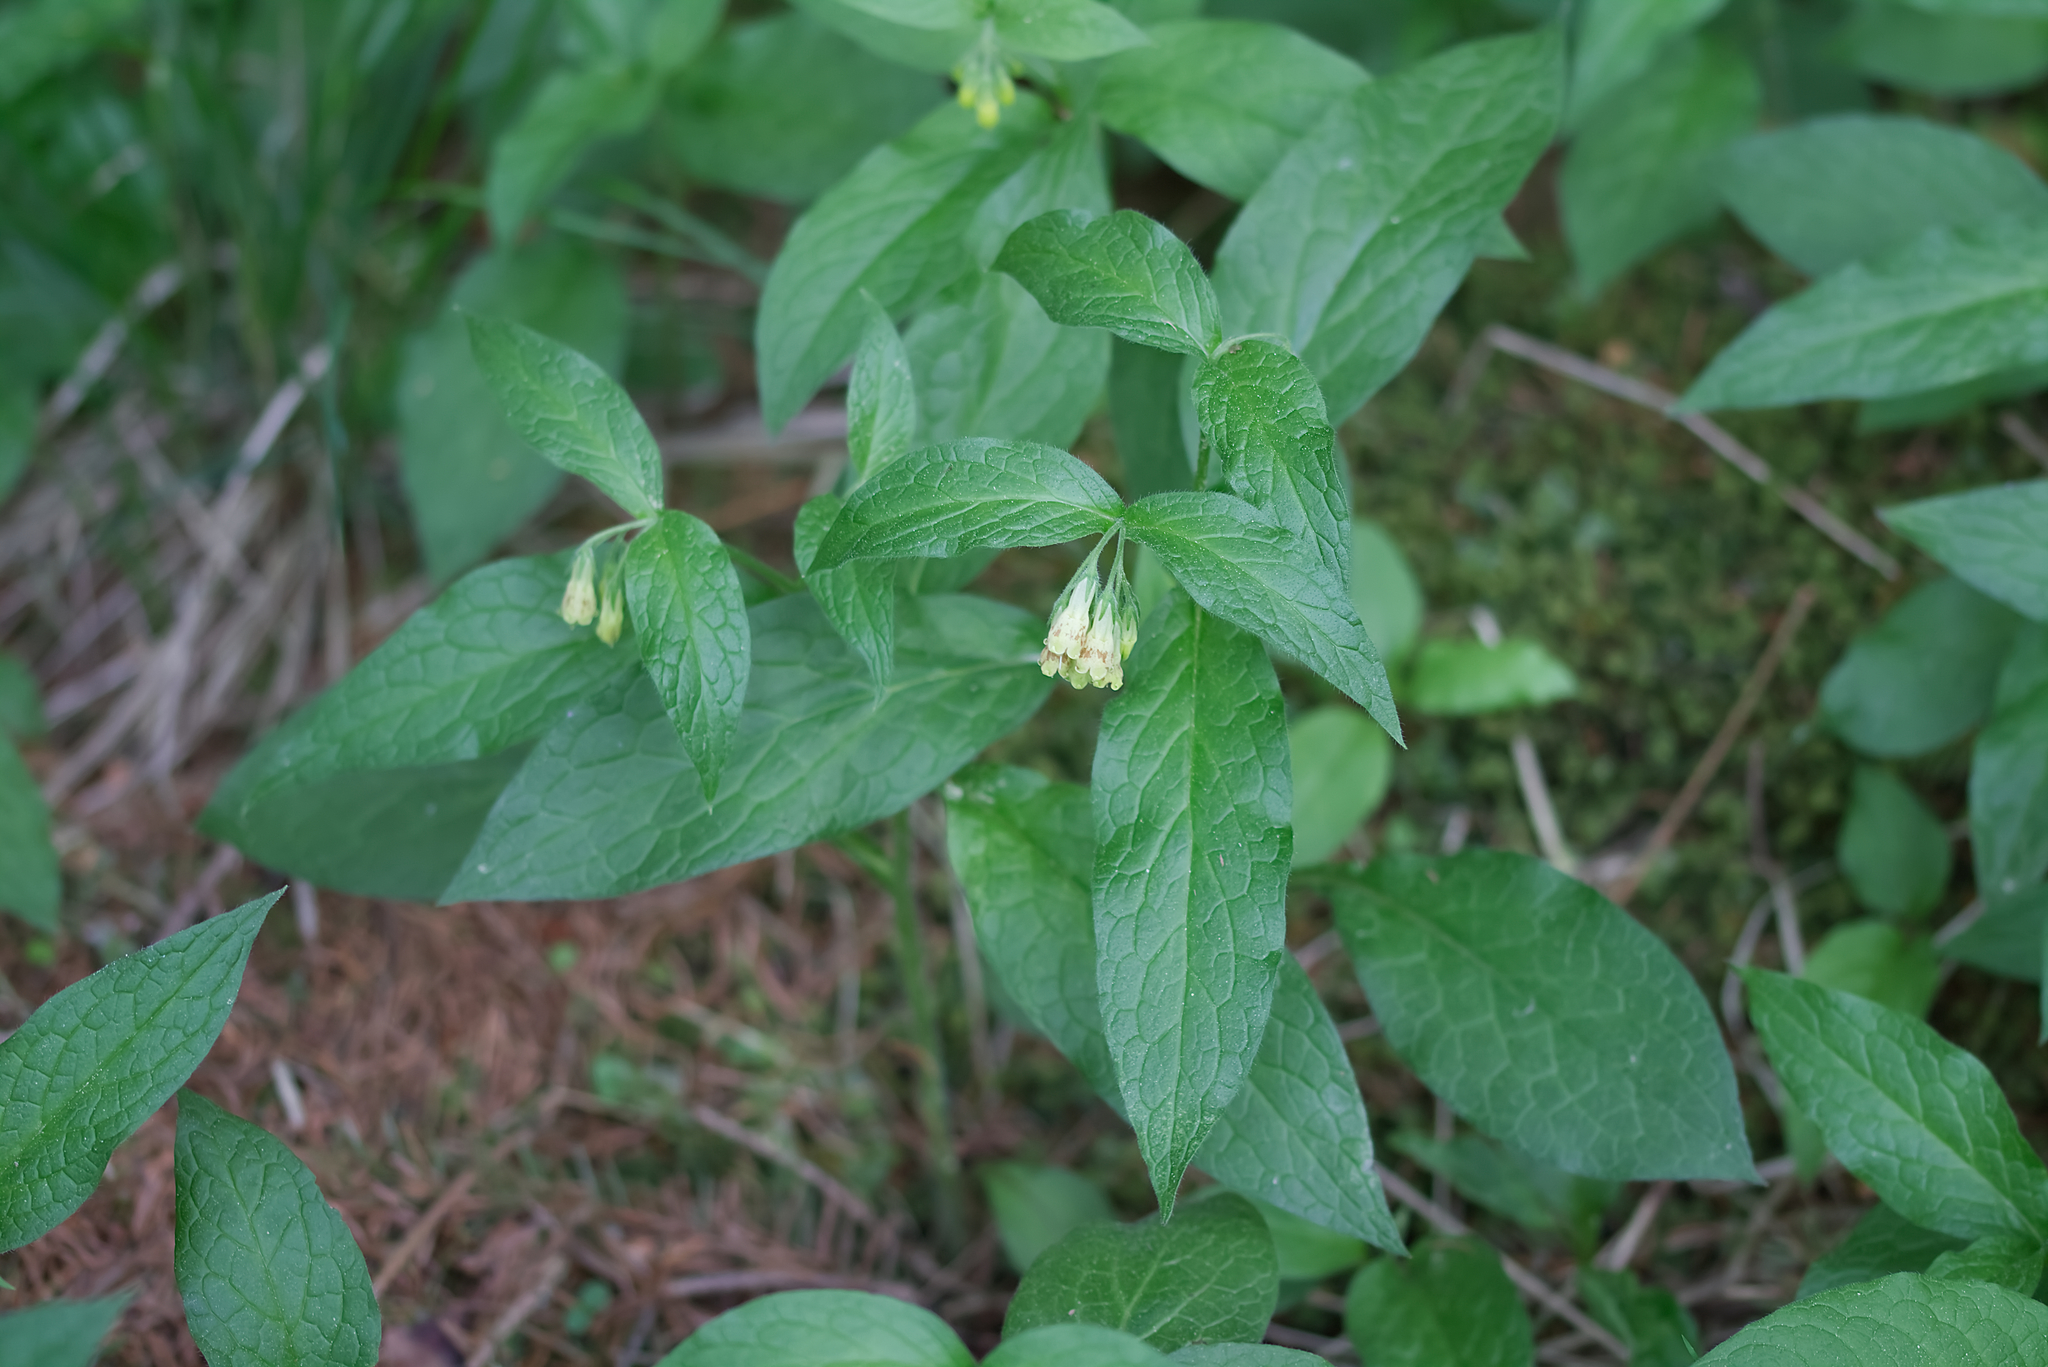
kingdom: Plantae
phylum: Tracheophyta
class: Magnoliopsida
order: Boraginales
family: Boraginaceae
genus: Symphytum
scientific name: Symphytum tuberosum
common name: Tuberous comfrey
